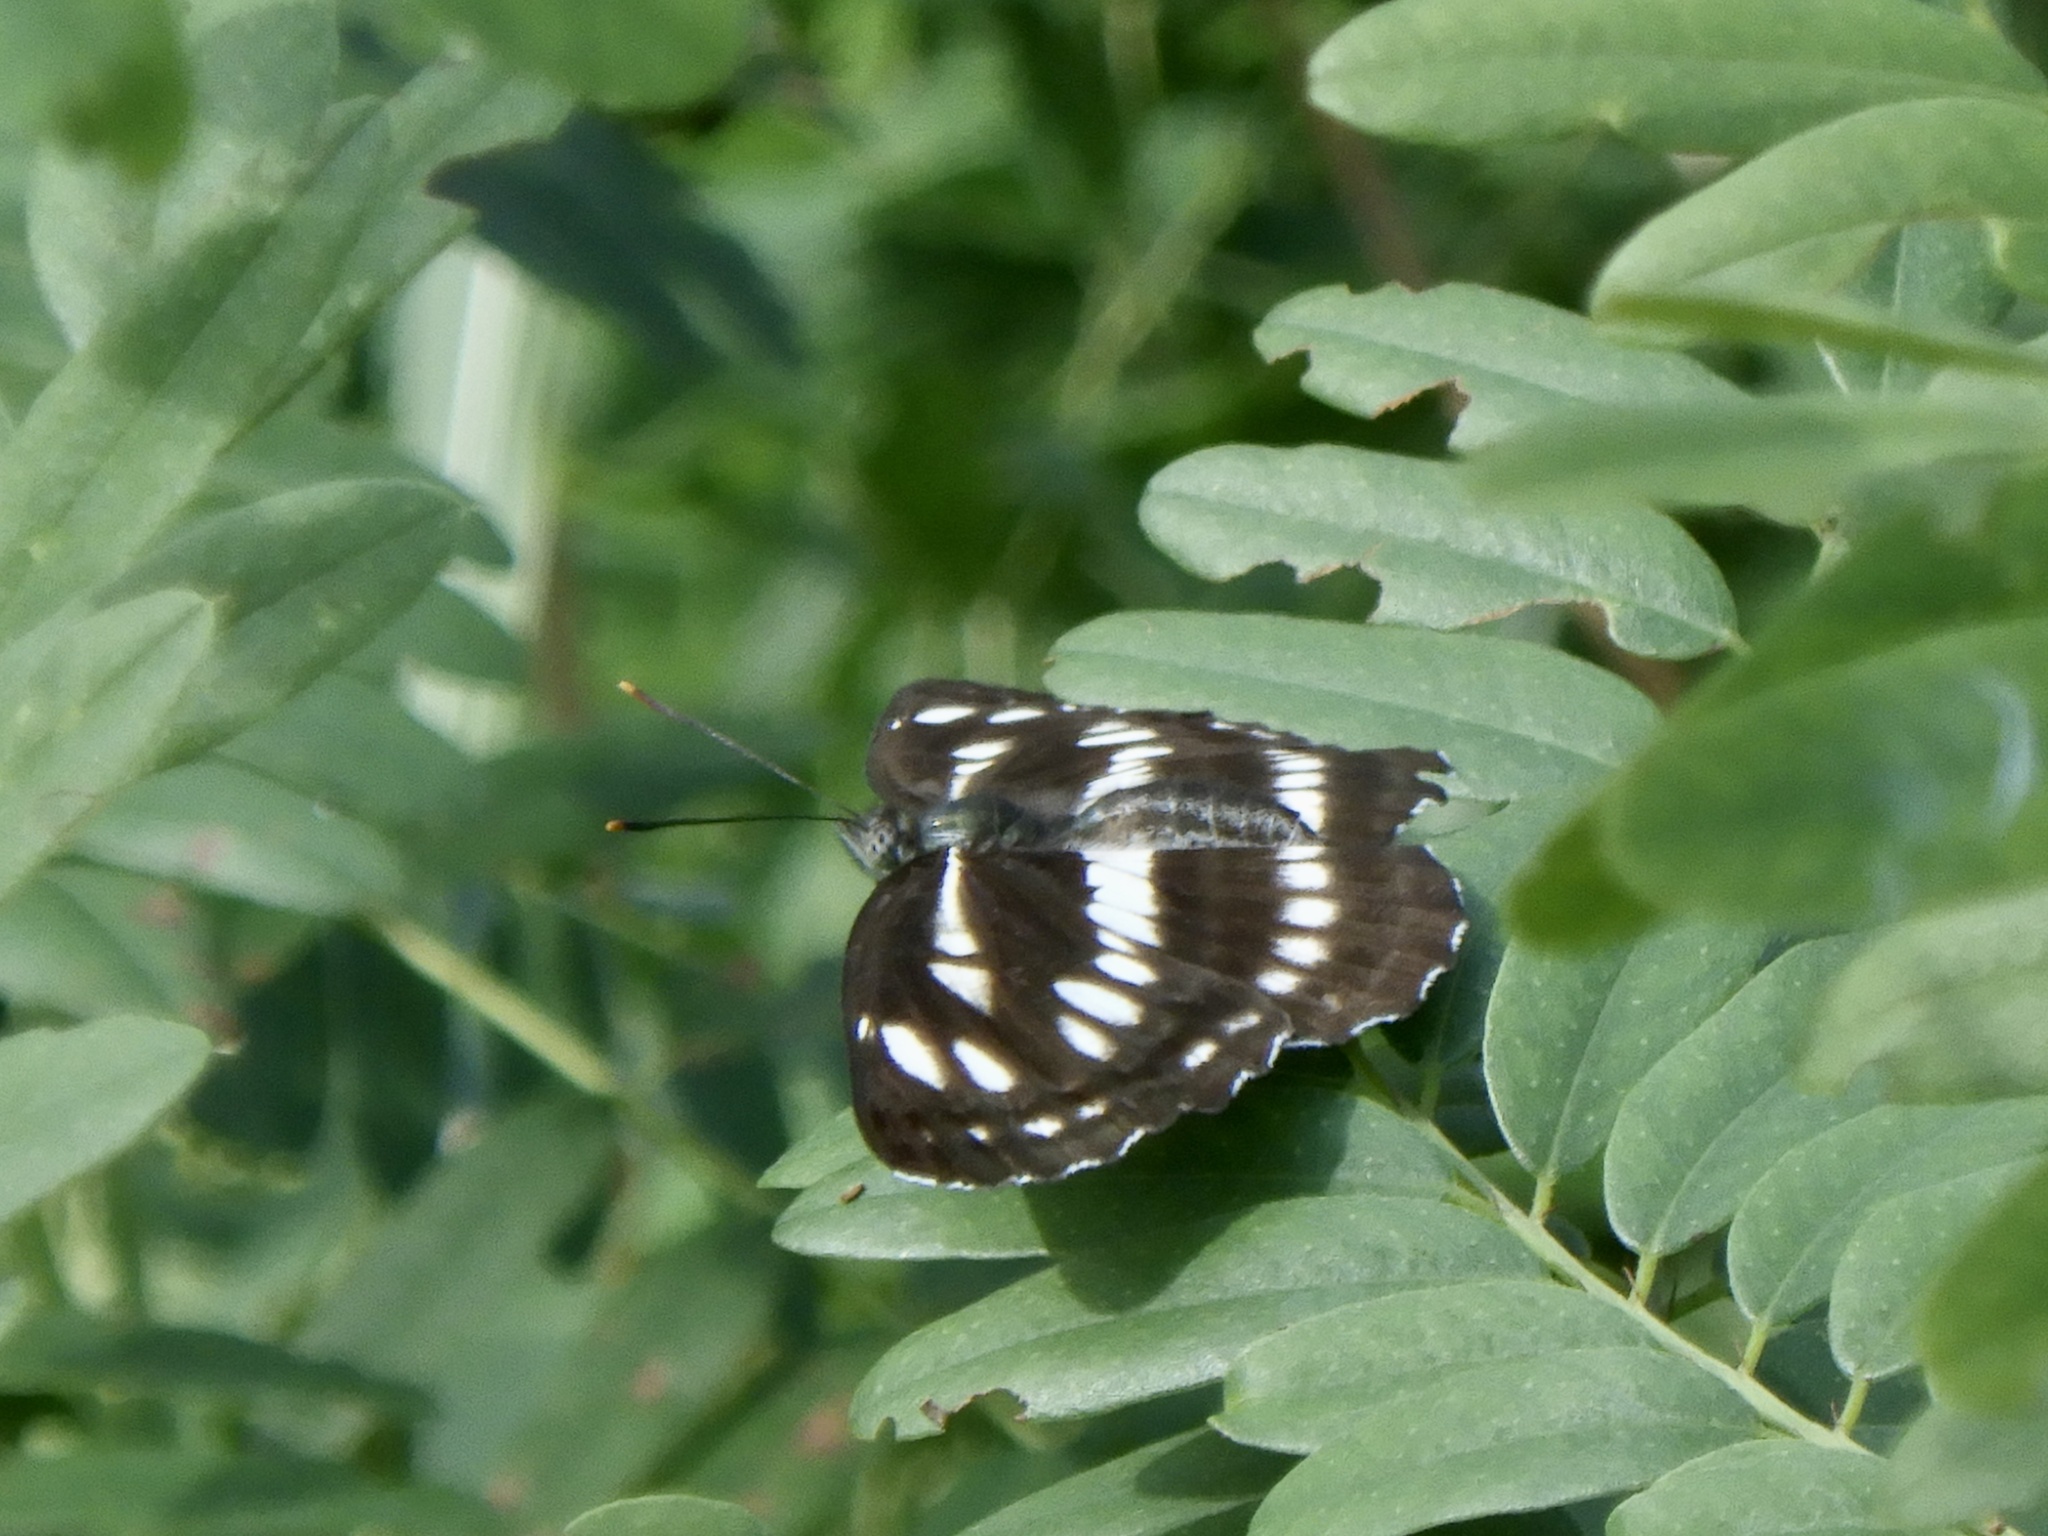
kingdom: Animalia
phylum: Arthropoda
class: Insecta
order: Lepidoptera
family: Nymphalidae
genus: Neptis
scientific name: Neptis sappho
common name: Common glider
